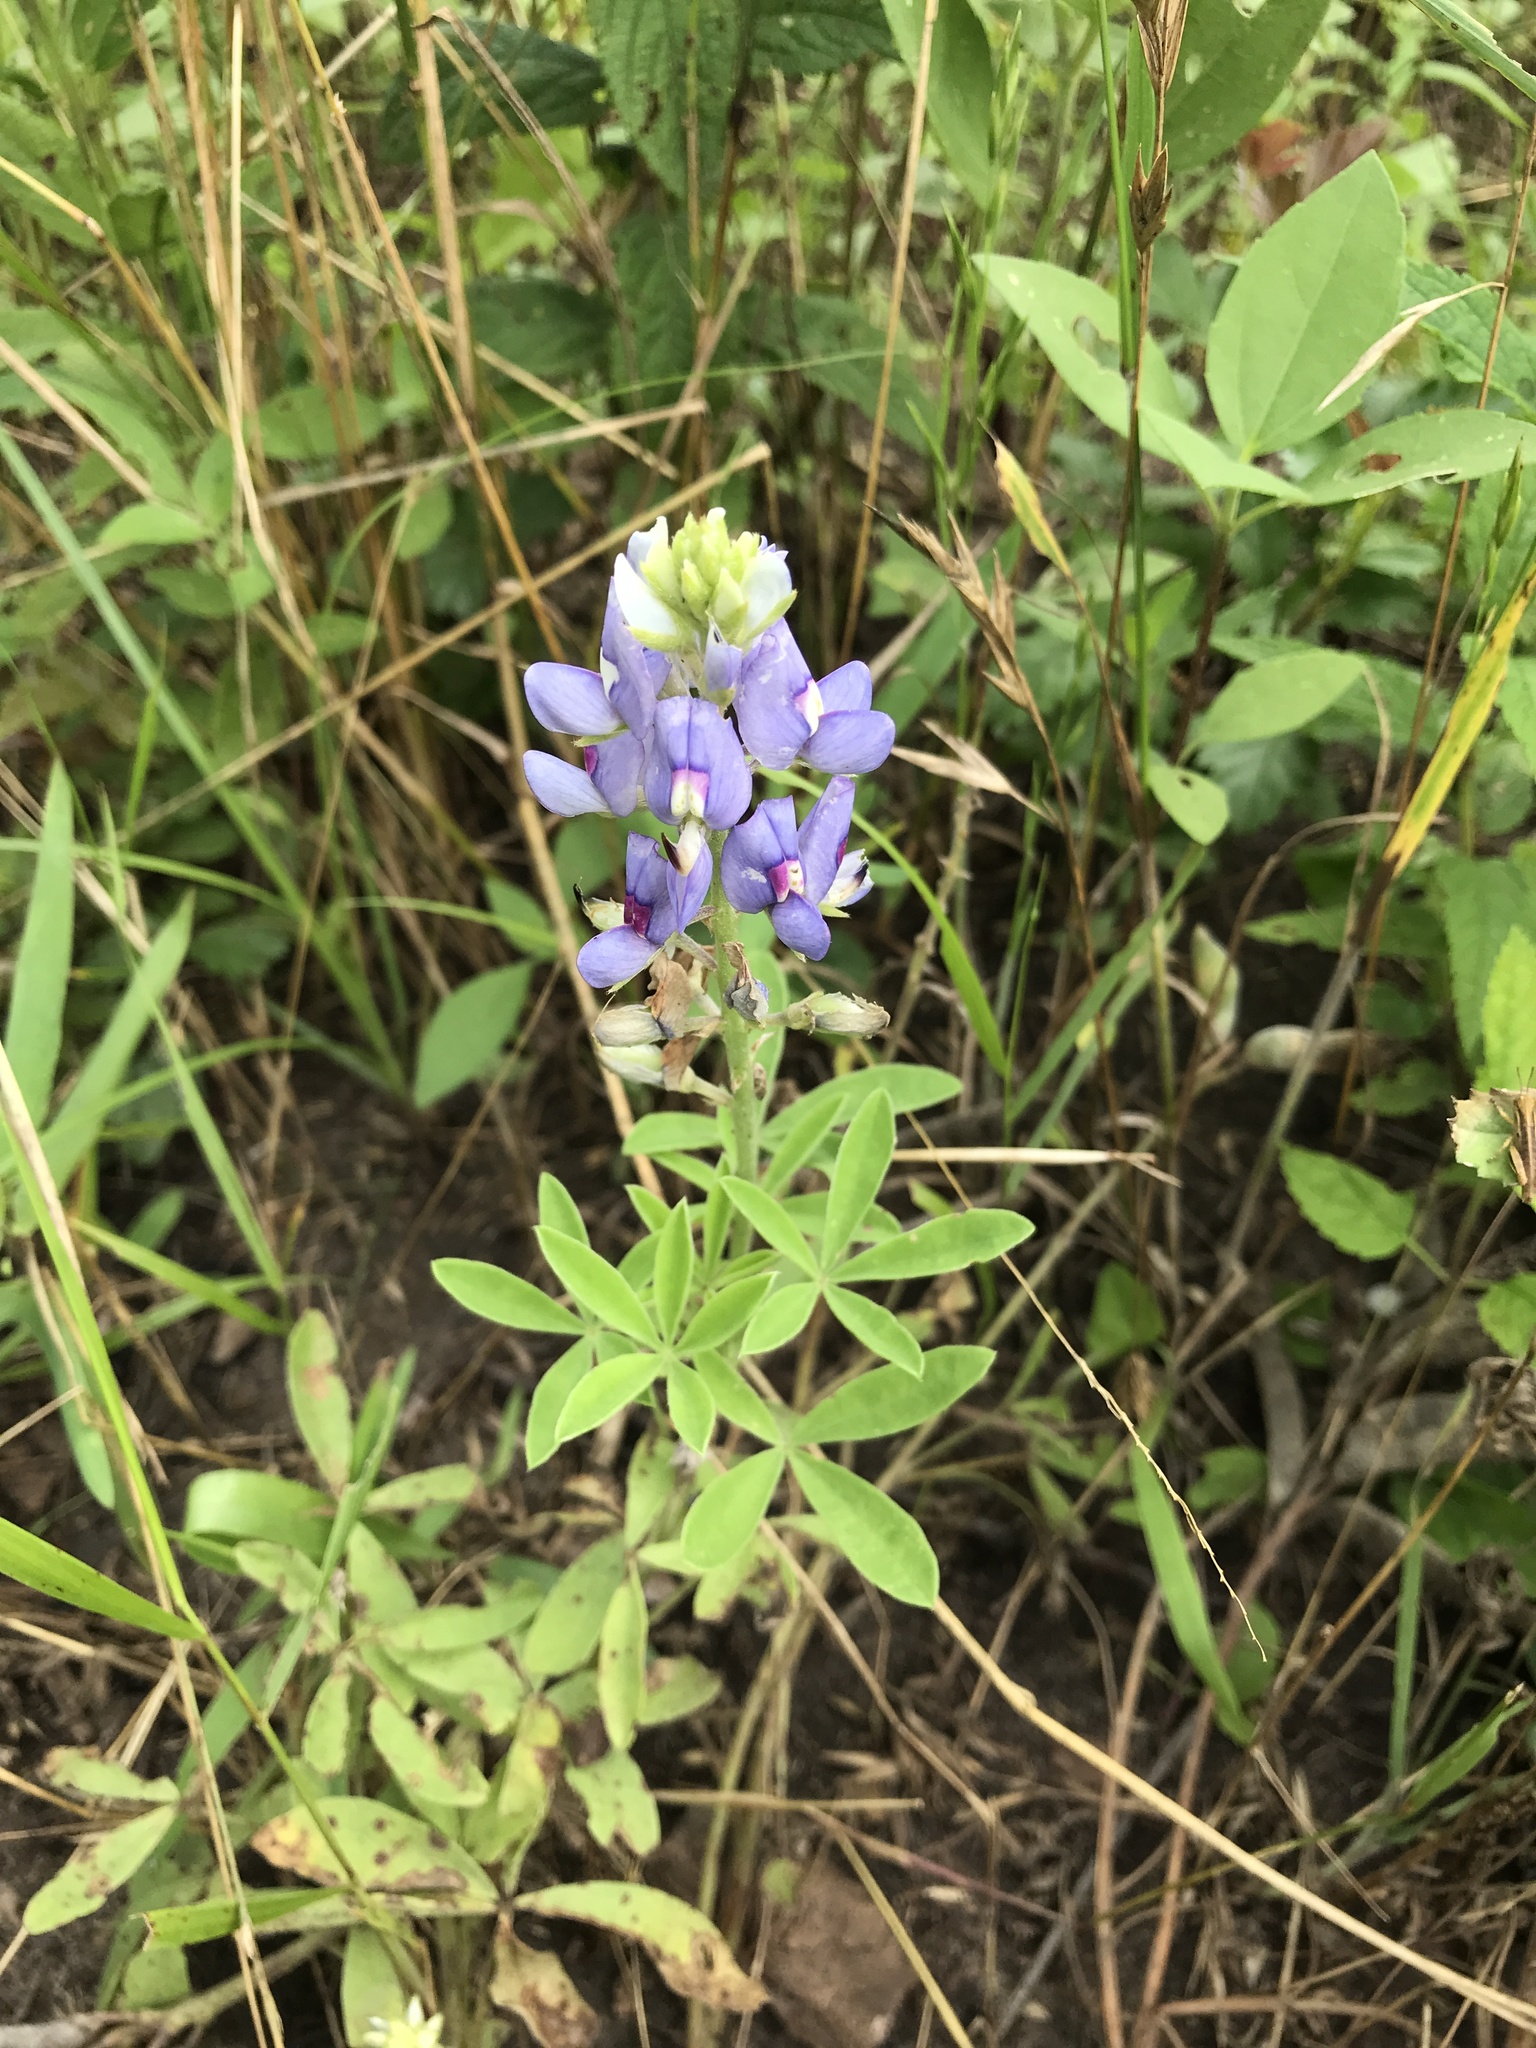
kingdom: Plantae
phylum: Tracheophyta
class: Magnoliopsida
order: Fabales
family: Fabaceae
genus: Lupinus
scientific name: Lupinus texensis
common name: Texas bluebonnet
